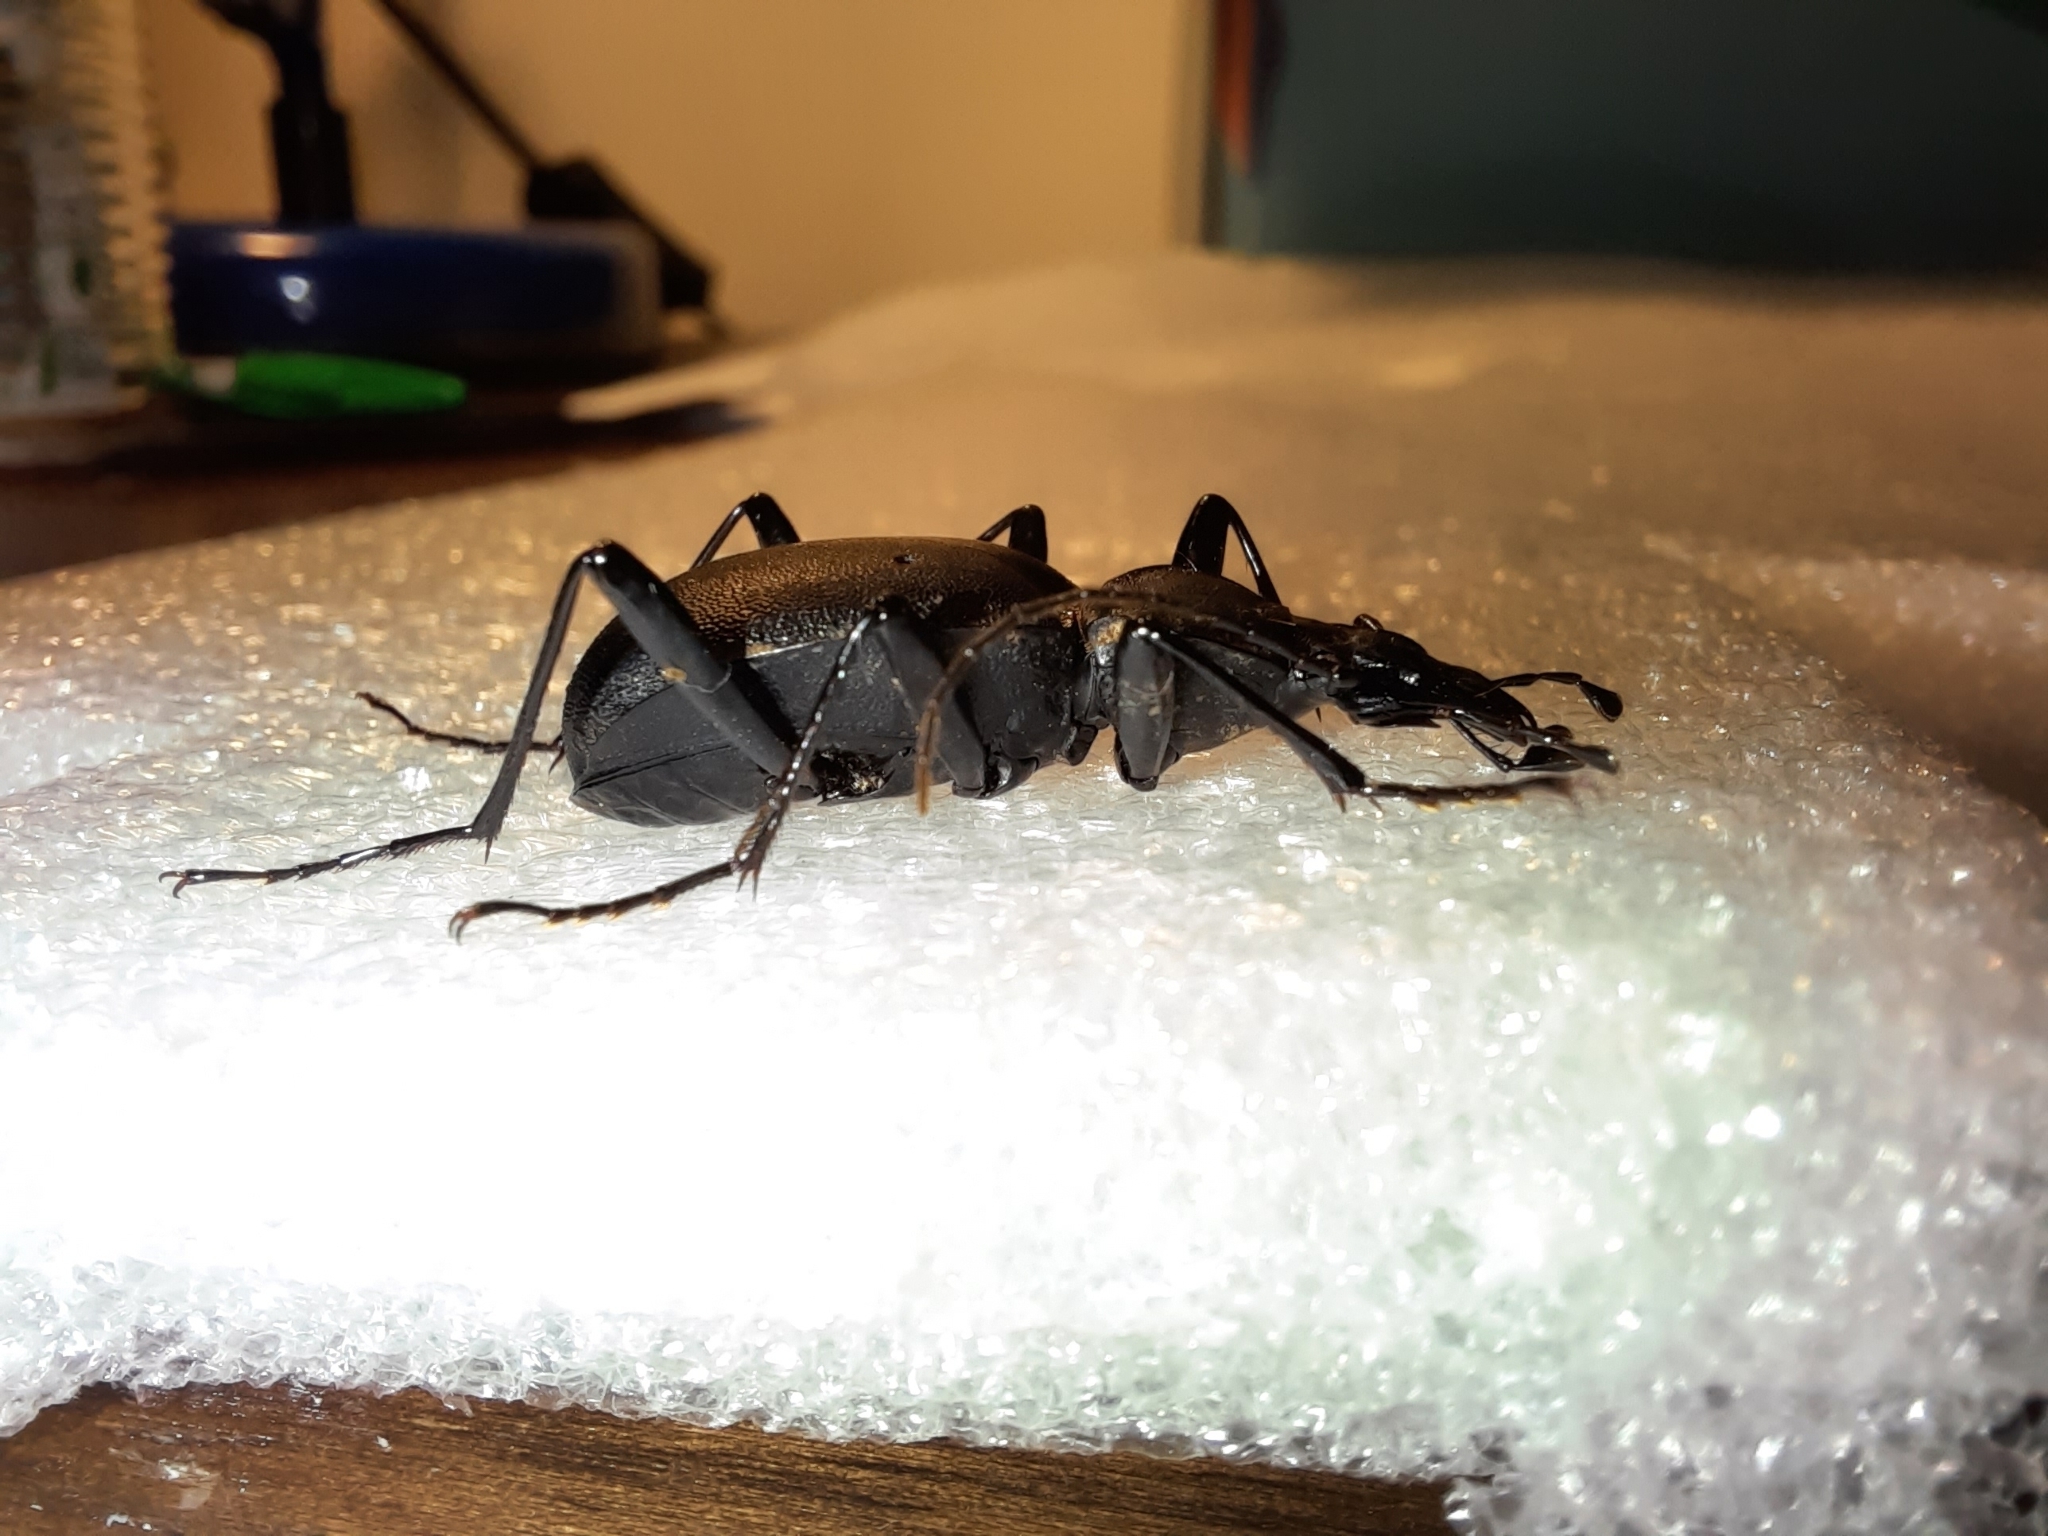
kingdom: Animalia
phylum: Arthropoda
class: Insecta
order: Coleoptera
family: Carabidae
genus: Cychrus
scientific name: Cychrus italicus
